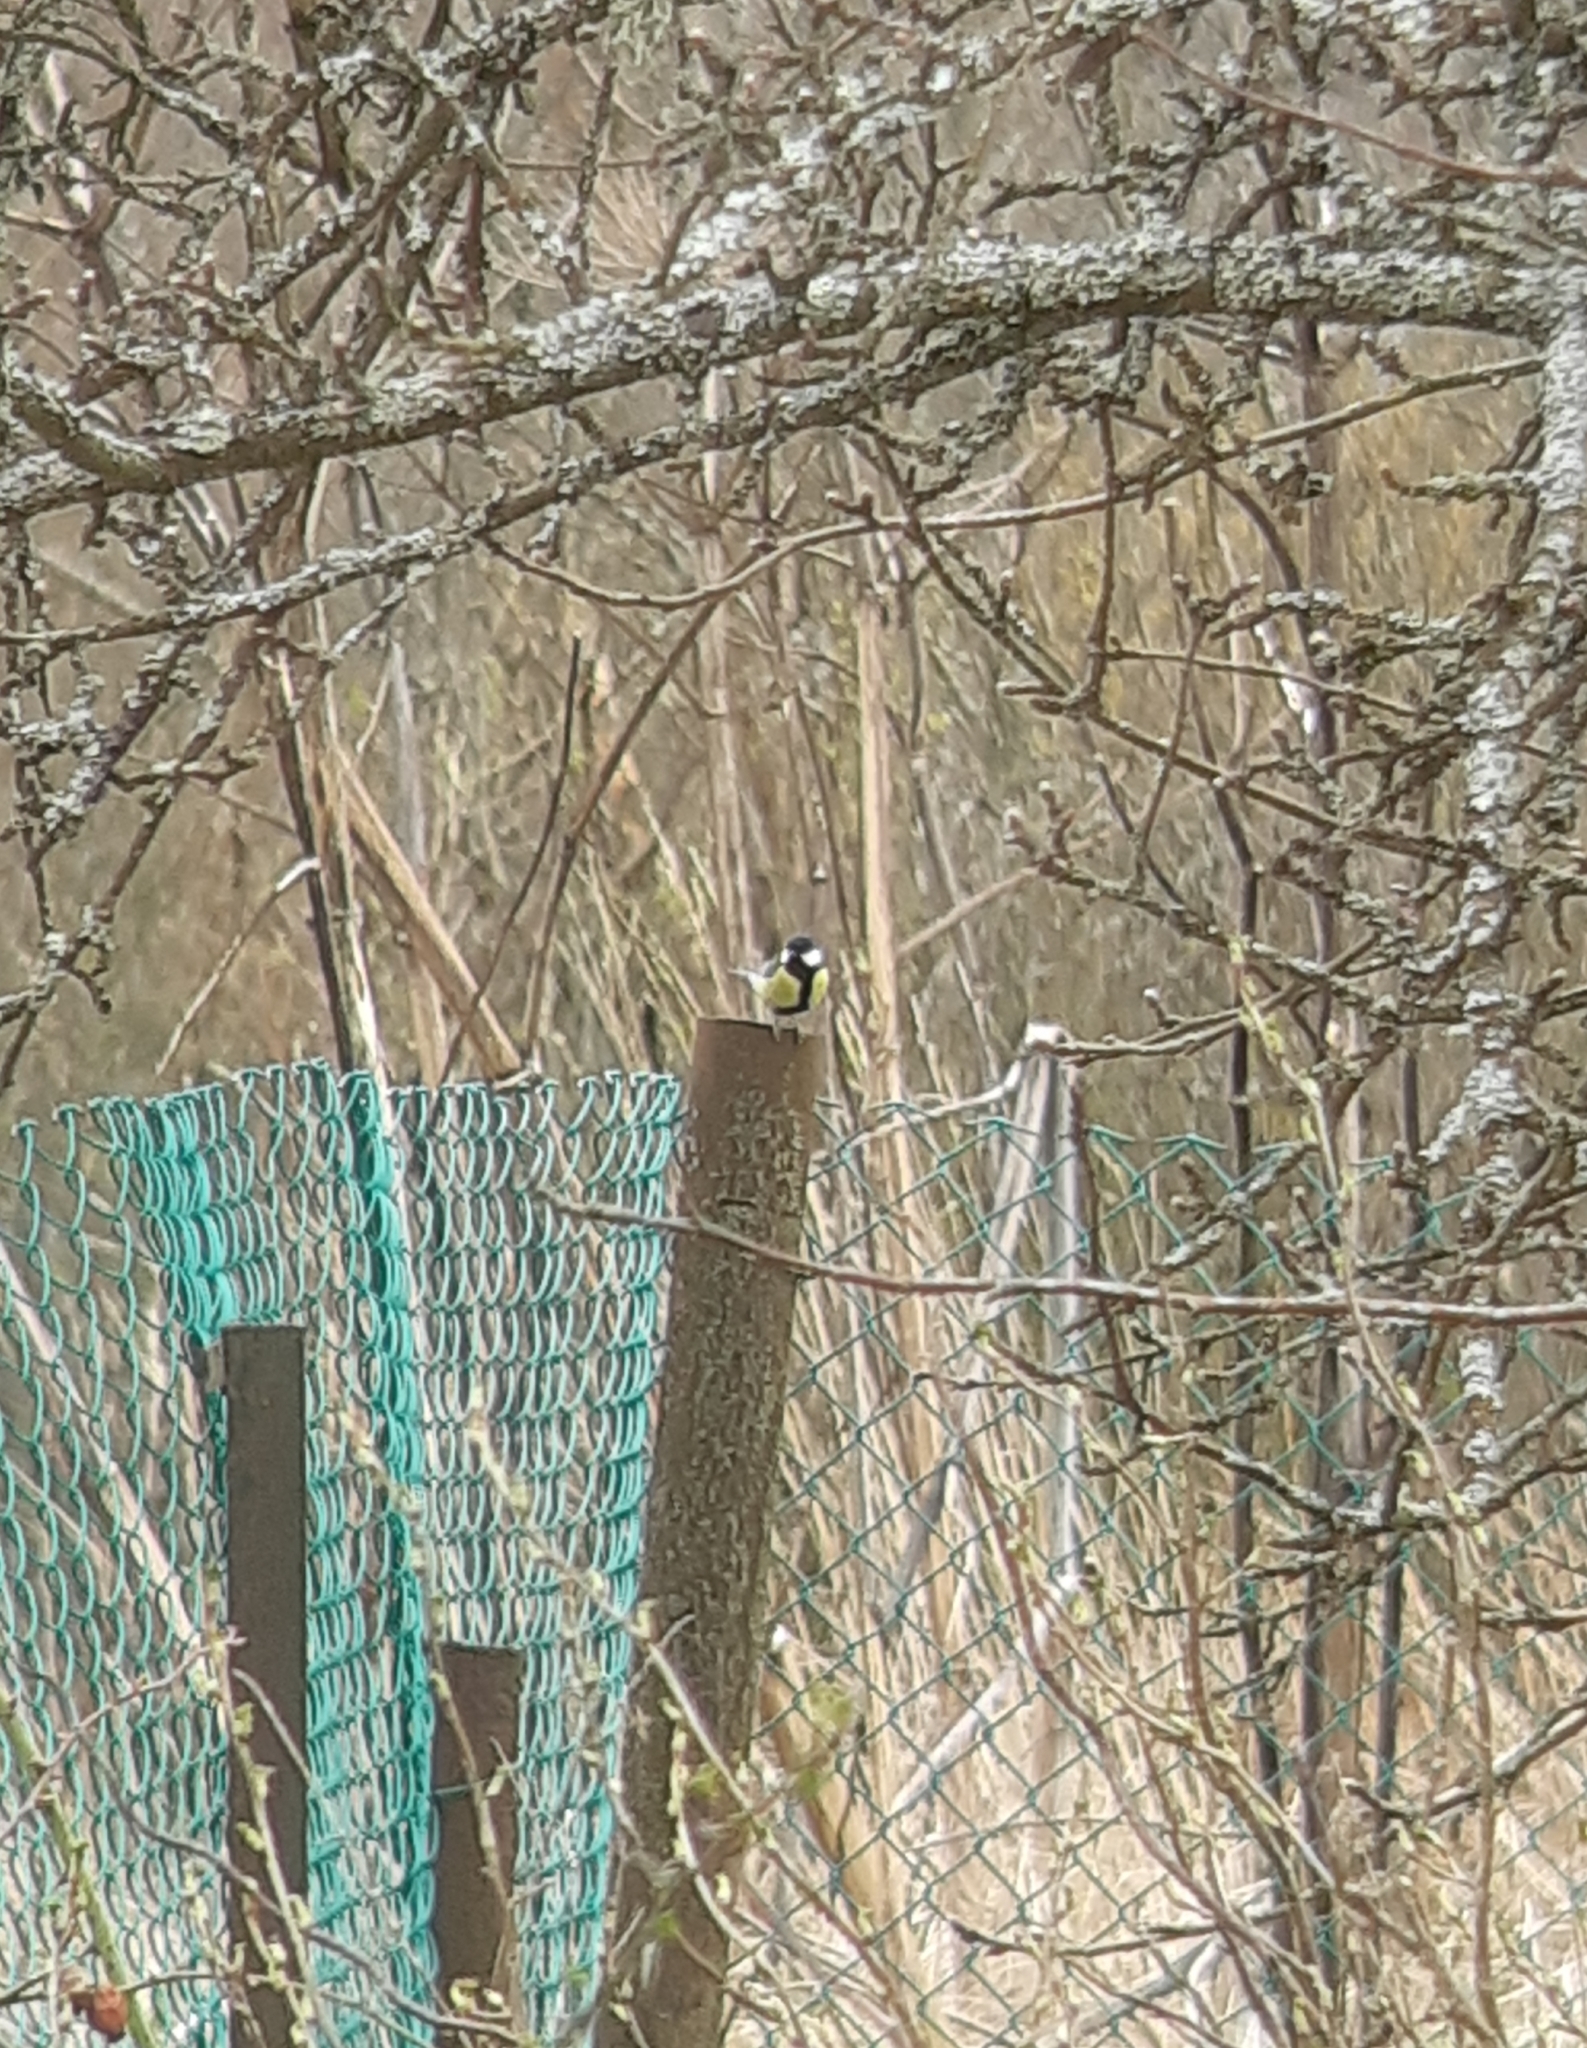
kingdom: Animalia
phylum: Chordata
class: Aves
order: Passeriformes
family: Paridae
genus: Parus
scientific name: Parus major
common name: Great tit
